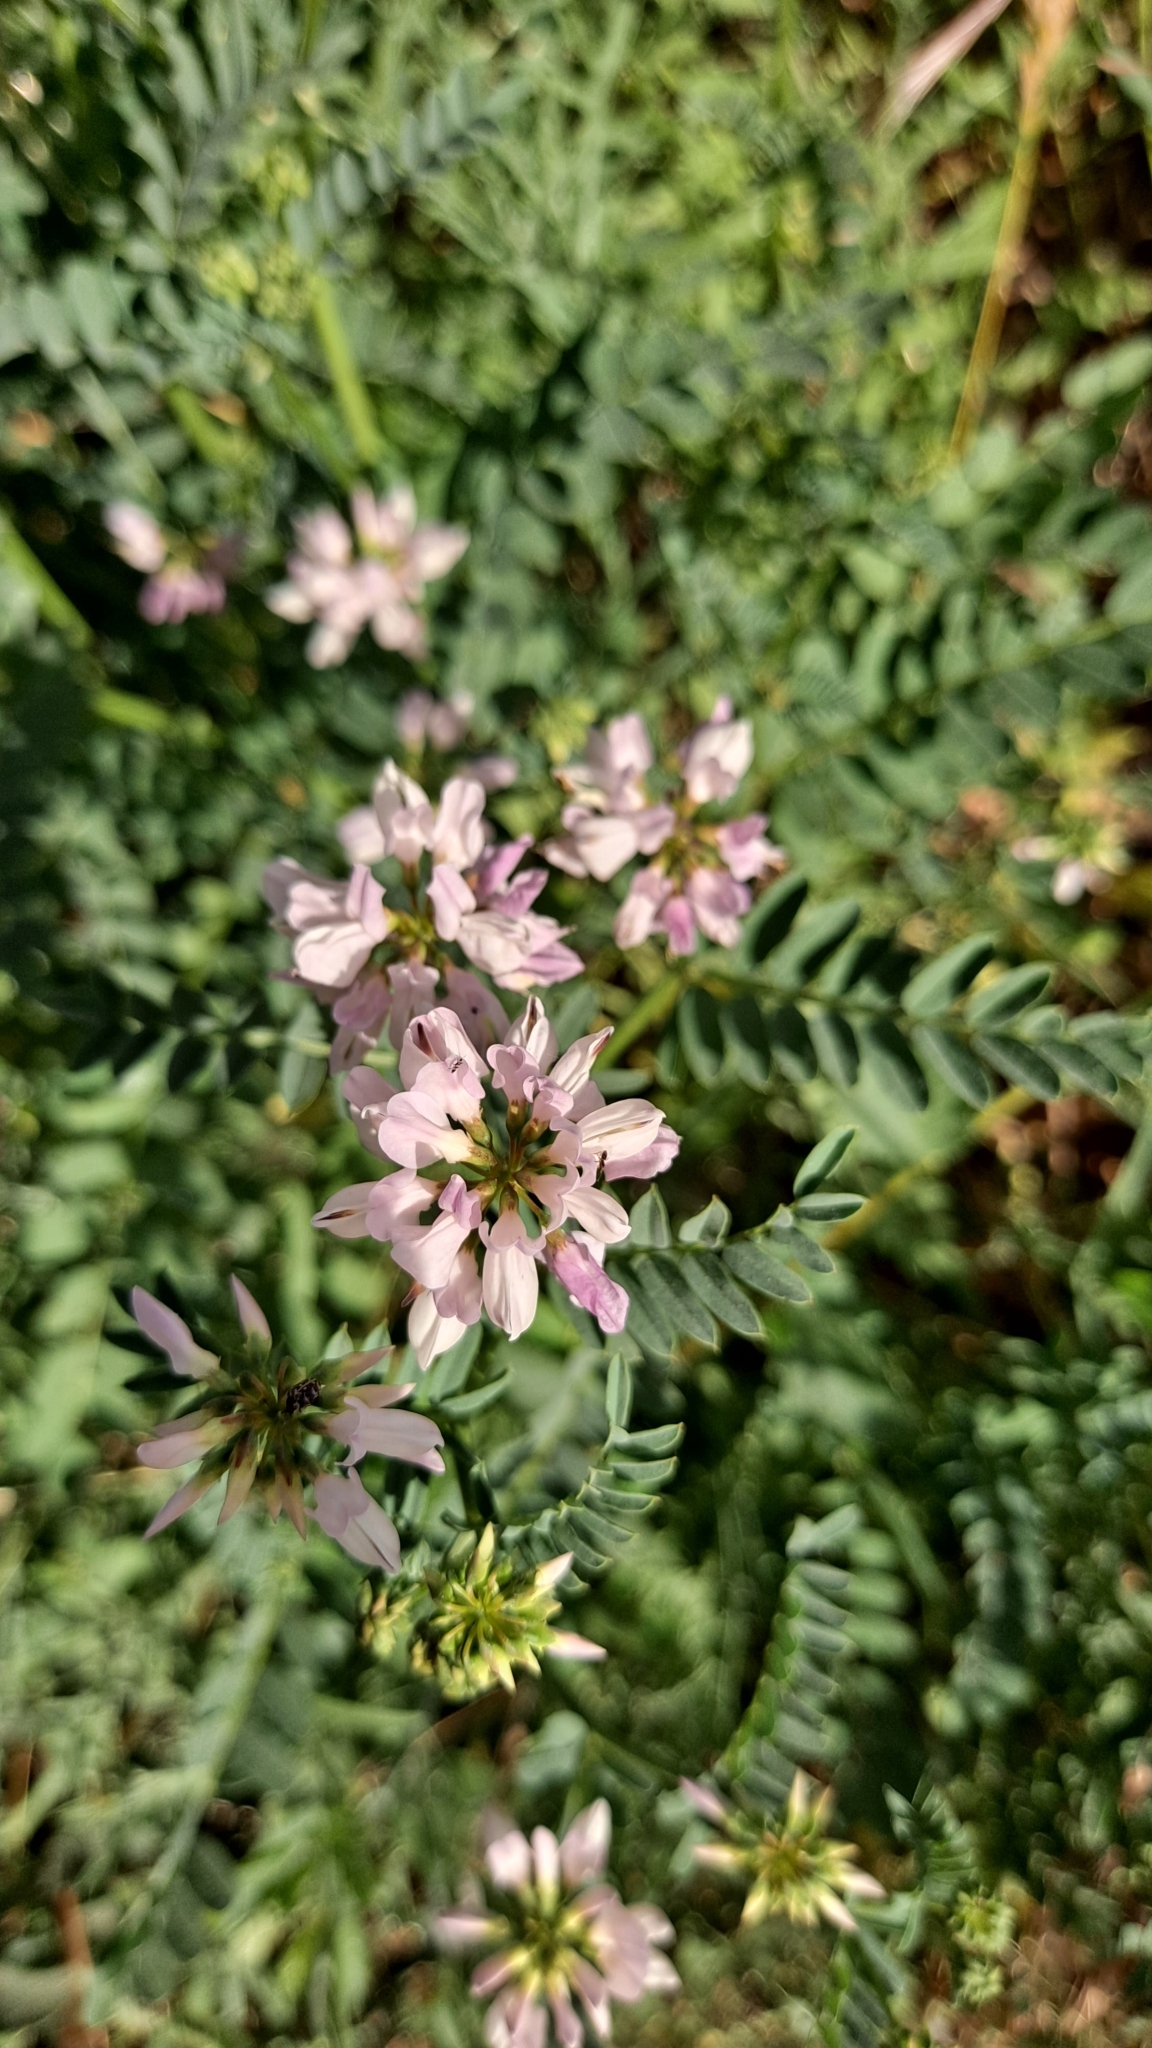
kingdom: Plantae
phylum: Tracheophyta
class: Magnoliopsida
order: Fabales
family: Fabaceae
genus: Coronilla
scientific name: Coronilla varia
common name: Crownvetch
